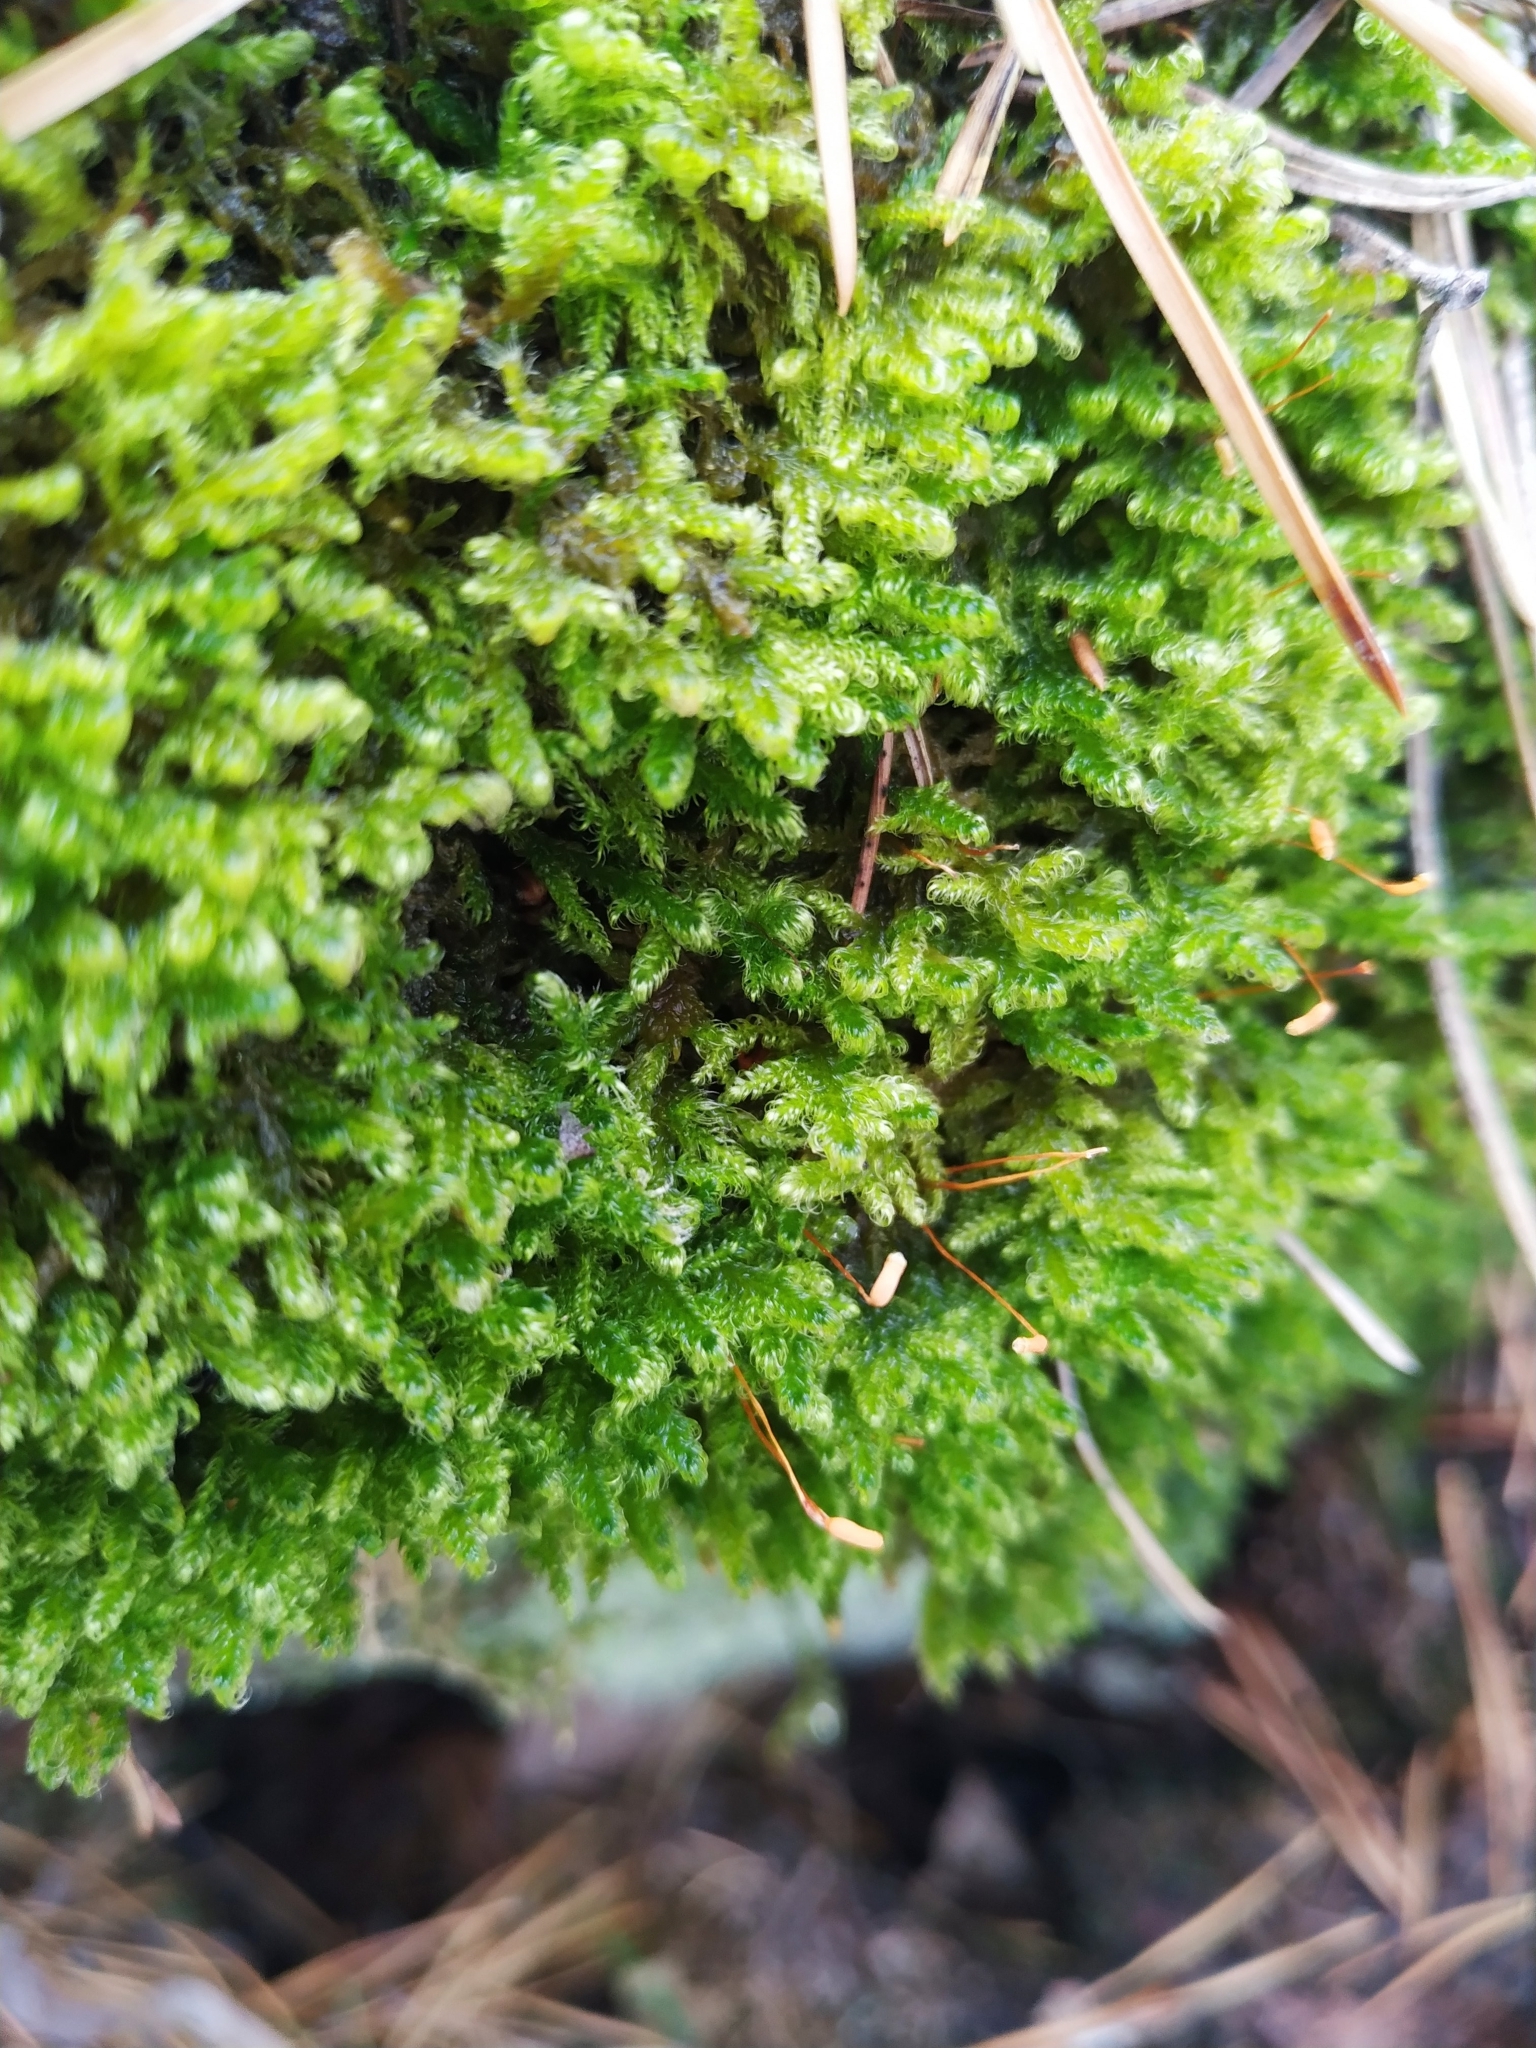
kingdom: Plantae
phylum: Bryophyta
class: Bryopsida
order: Hypnales
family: Scorpidiaceae
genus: Sanionia
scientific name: Sanionia uncinata
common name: Sickle moss
